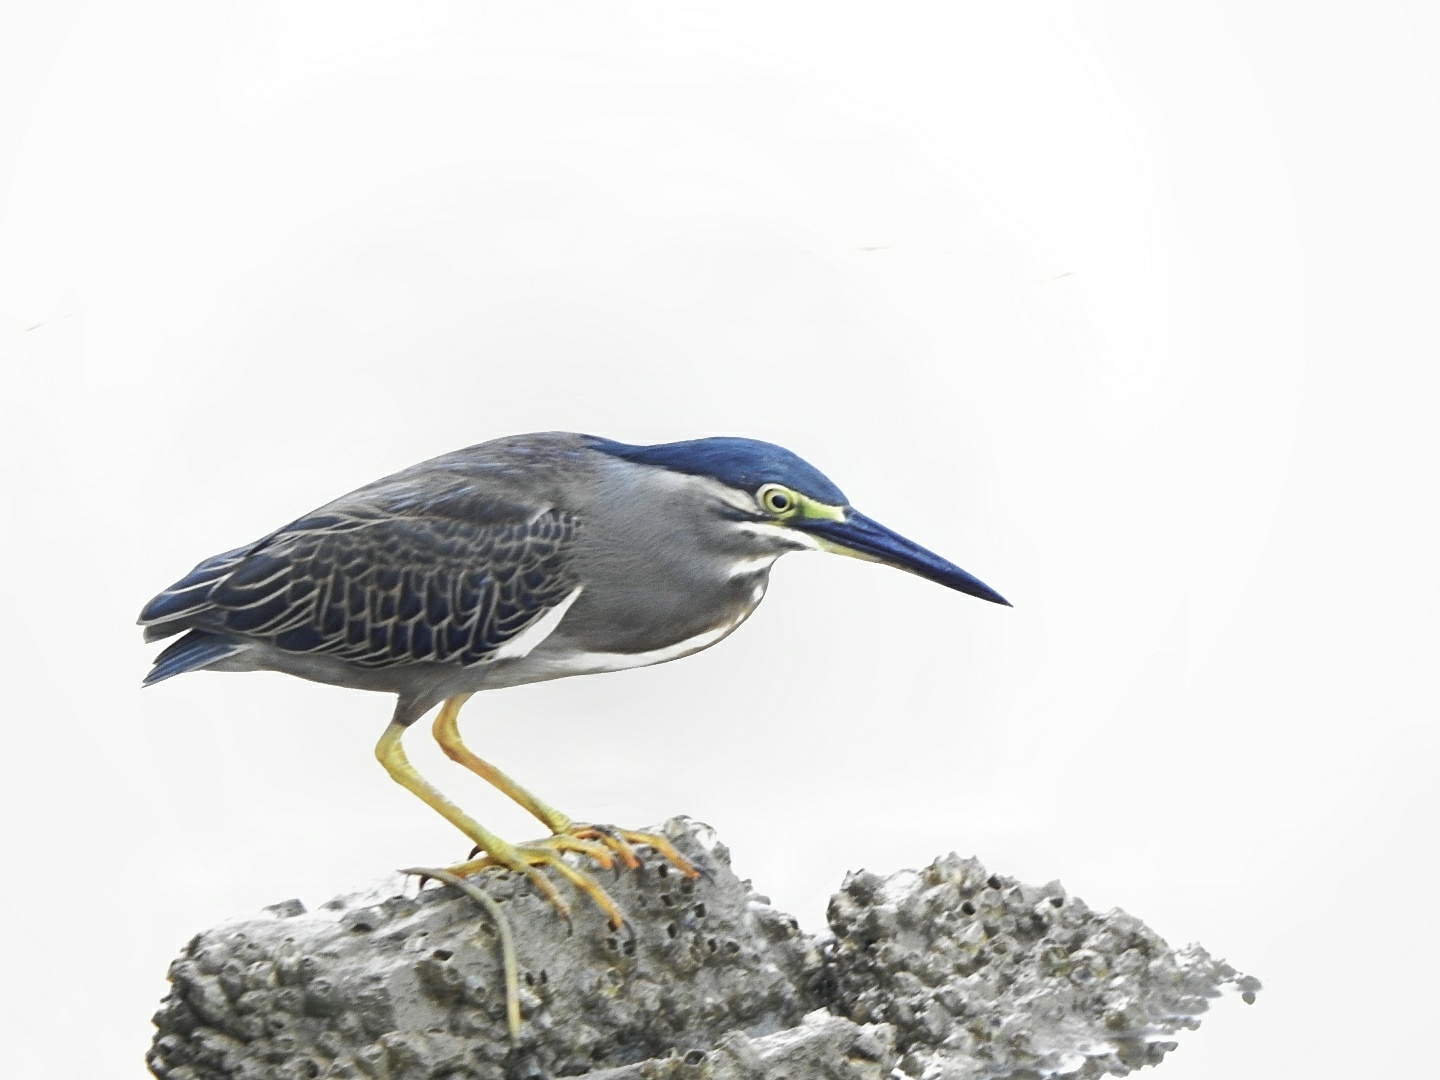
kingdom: Animalia
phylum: Chordata
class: Aves
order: Pelecaniformes
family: Ardeidae
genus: Butorides
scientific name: Butorides striata
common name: Striated heron
